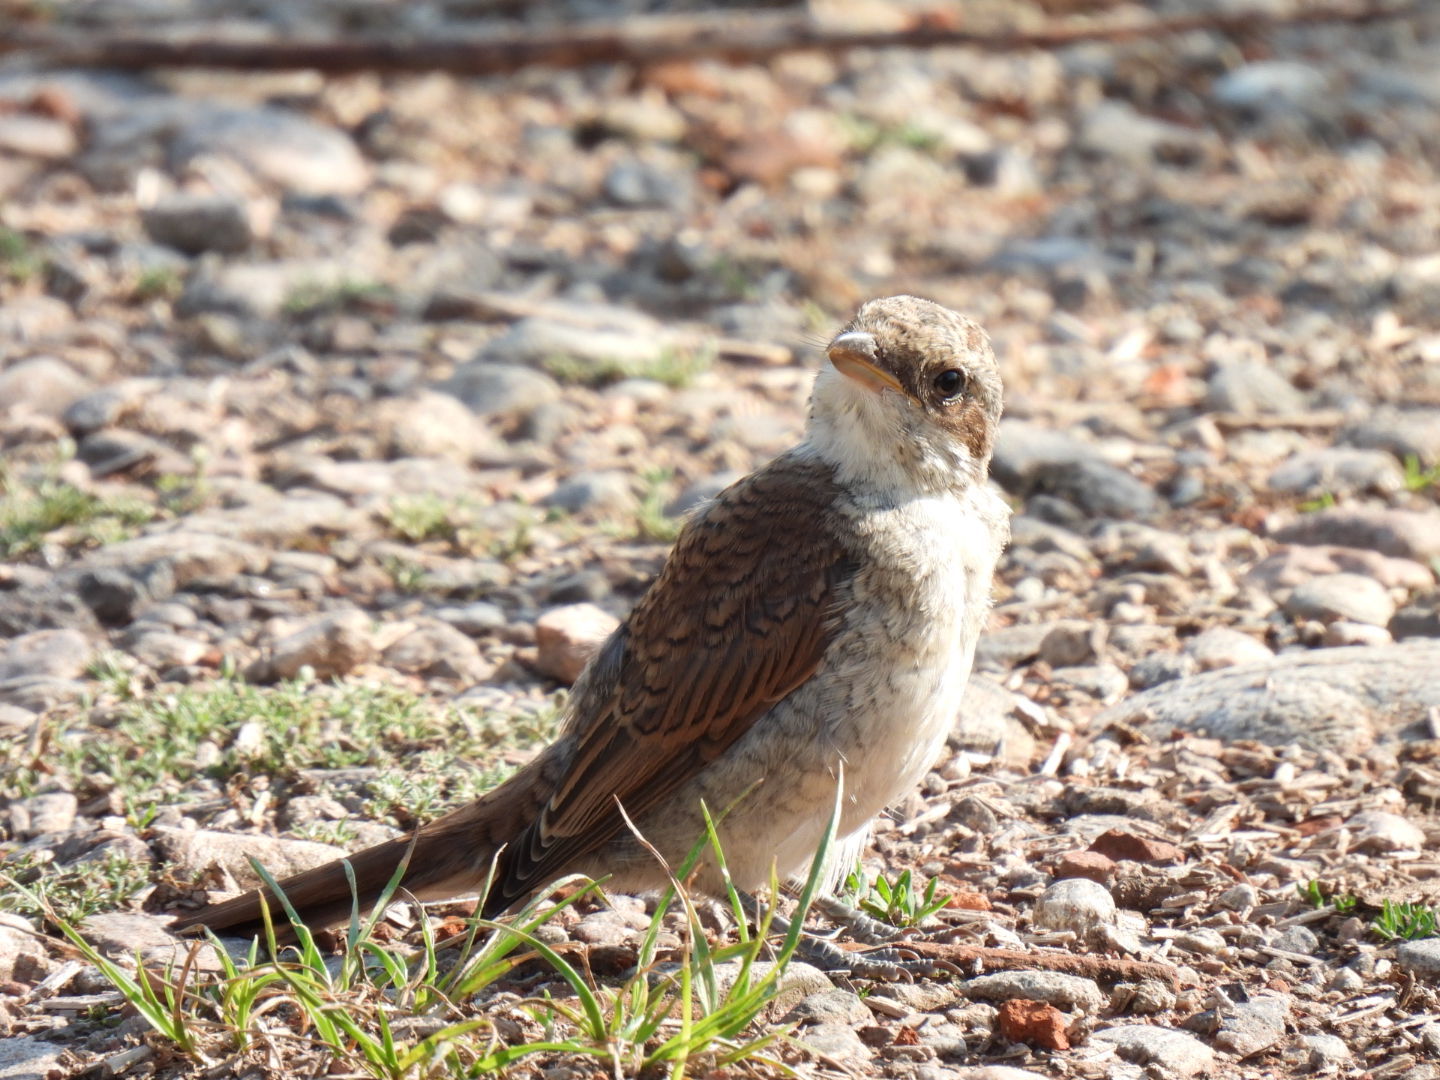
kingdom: Animalia
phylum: Chordata
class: Aves
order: Passeriformes
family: Laniidae
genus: Lanius
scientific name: Lanius collurio
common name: Red-backed shrike
